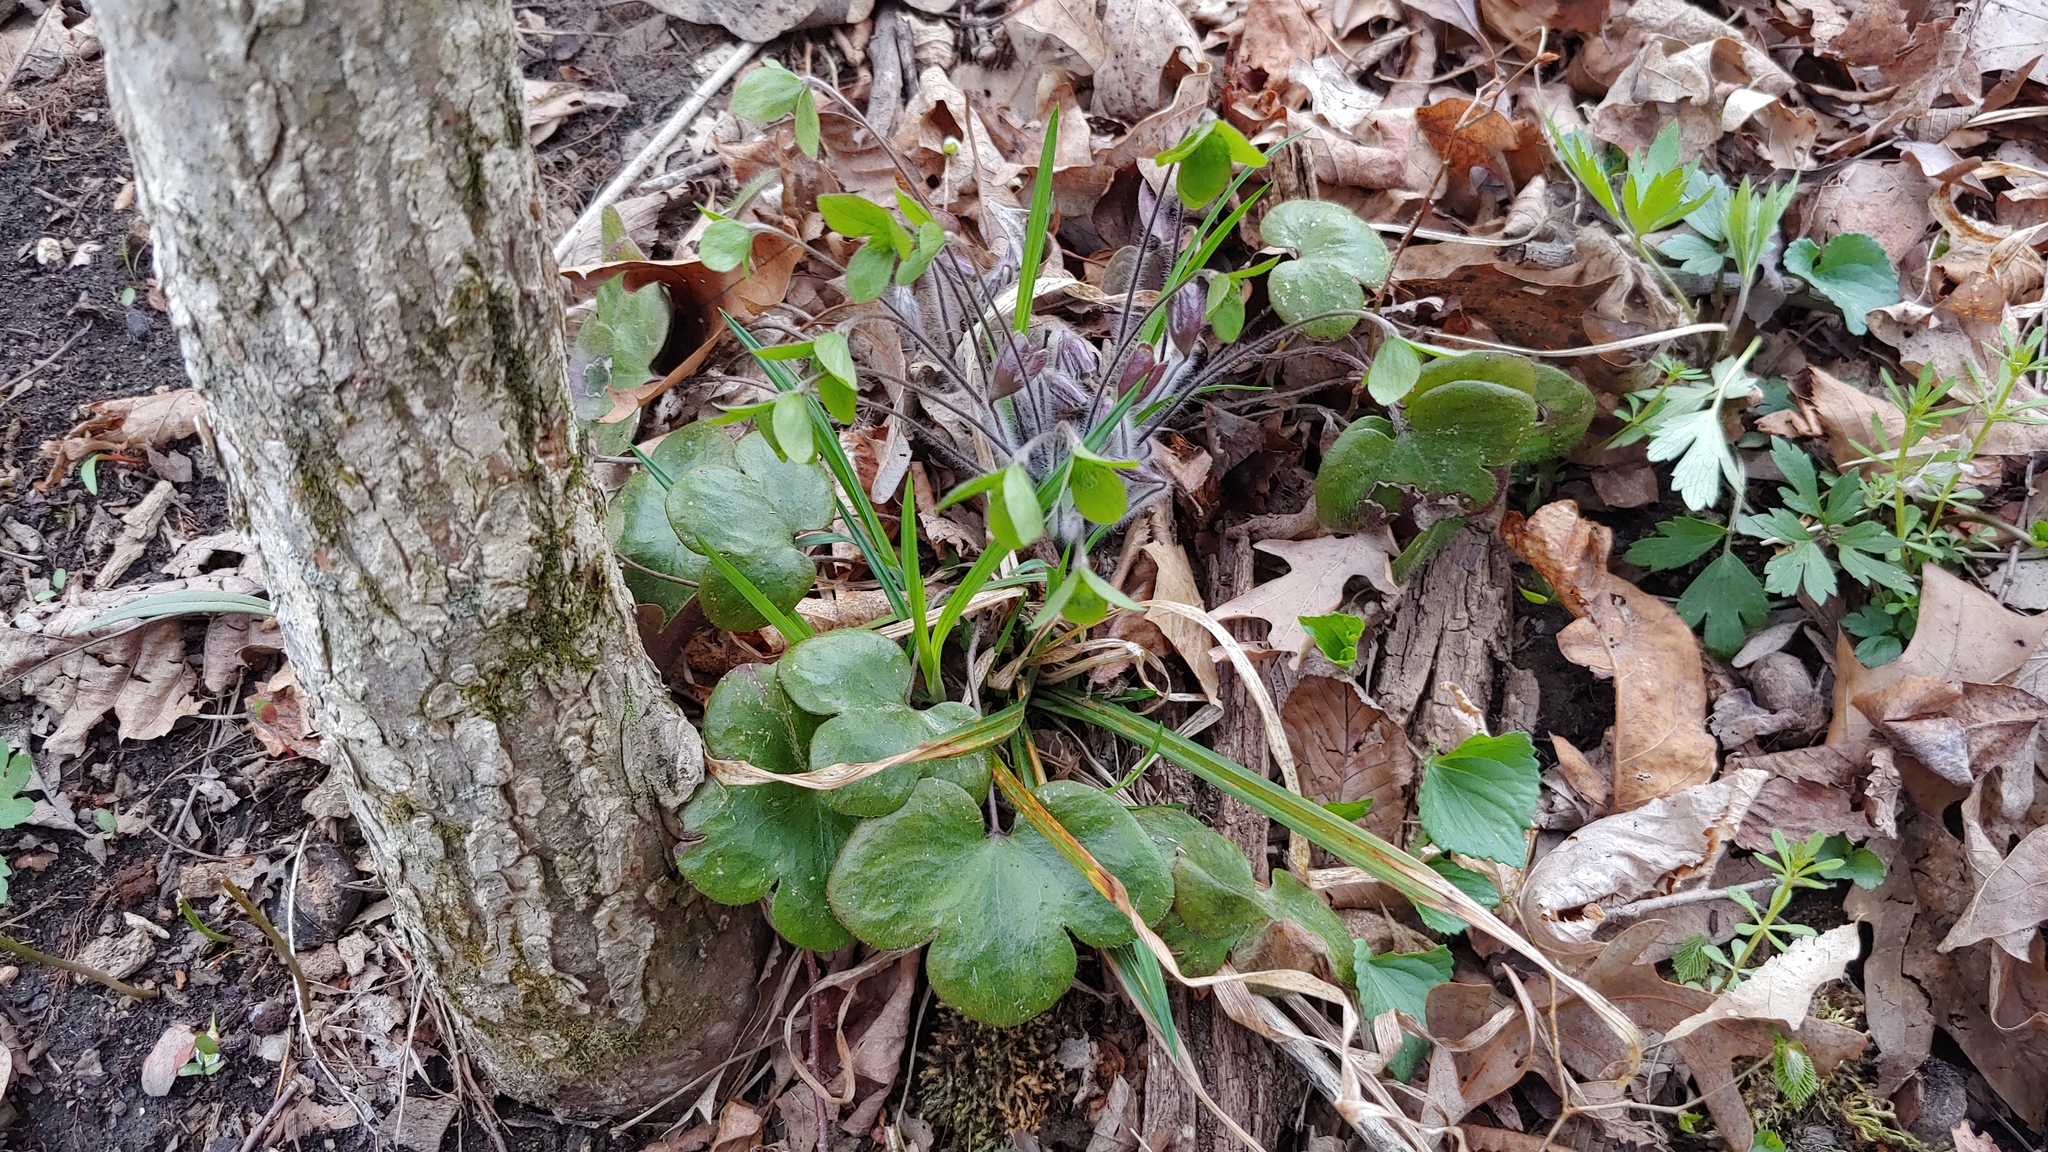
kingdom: Plantae
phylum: Tracheophyta
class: Magnoliopsida
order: Ranunculales
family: Ranunculaceae
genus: Hepatica
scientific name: Hepatica americana
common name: American hepatica
